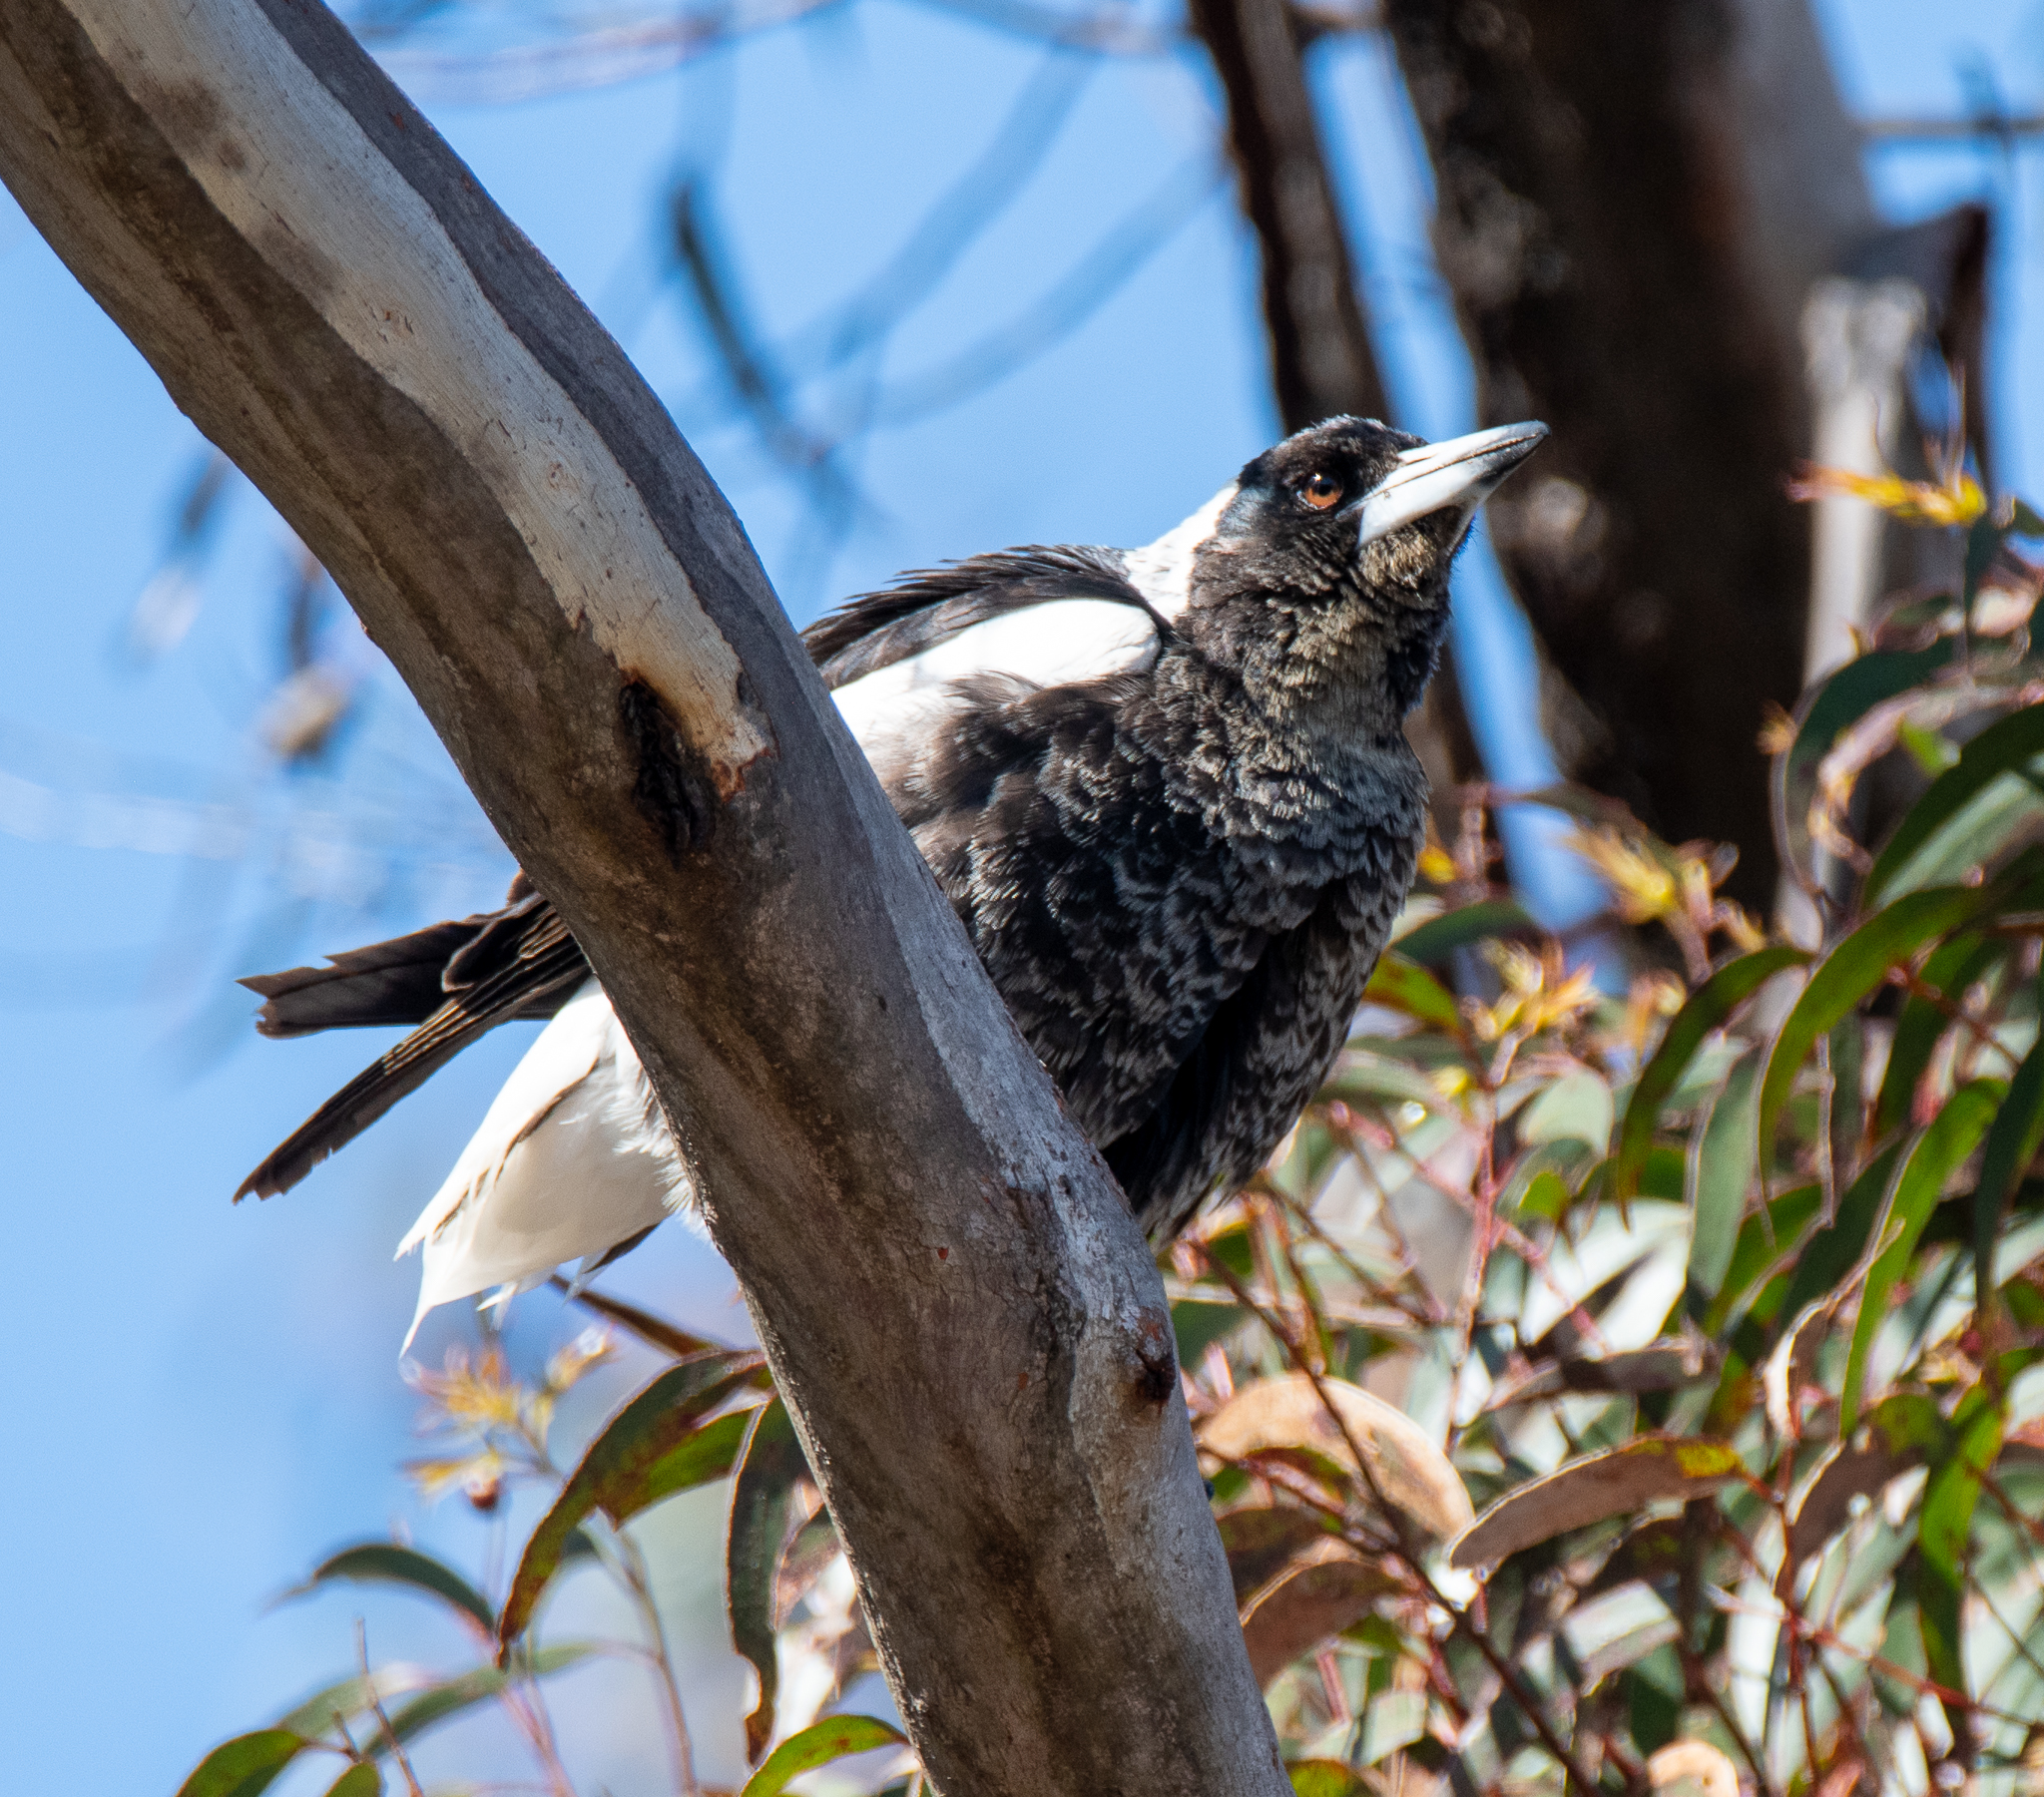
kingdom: Animalia
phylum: Chordata
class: Aves
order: Passeriformes
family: Cracticidae
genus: Gymnorhina
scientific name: Gymnorhina tibicen
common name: Australian magpie
